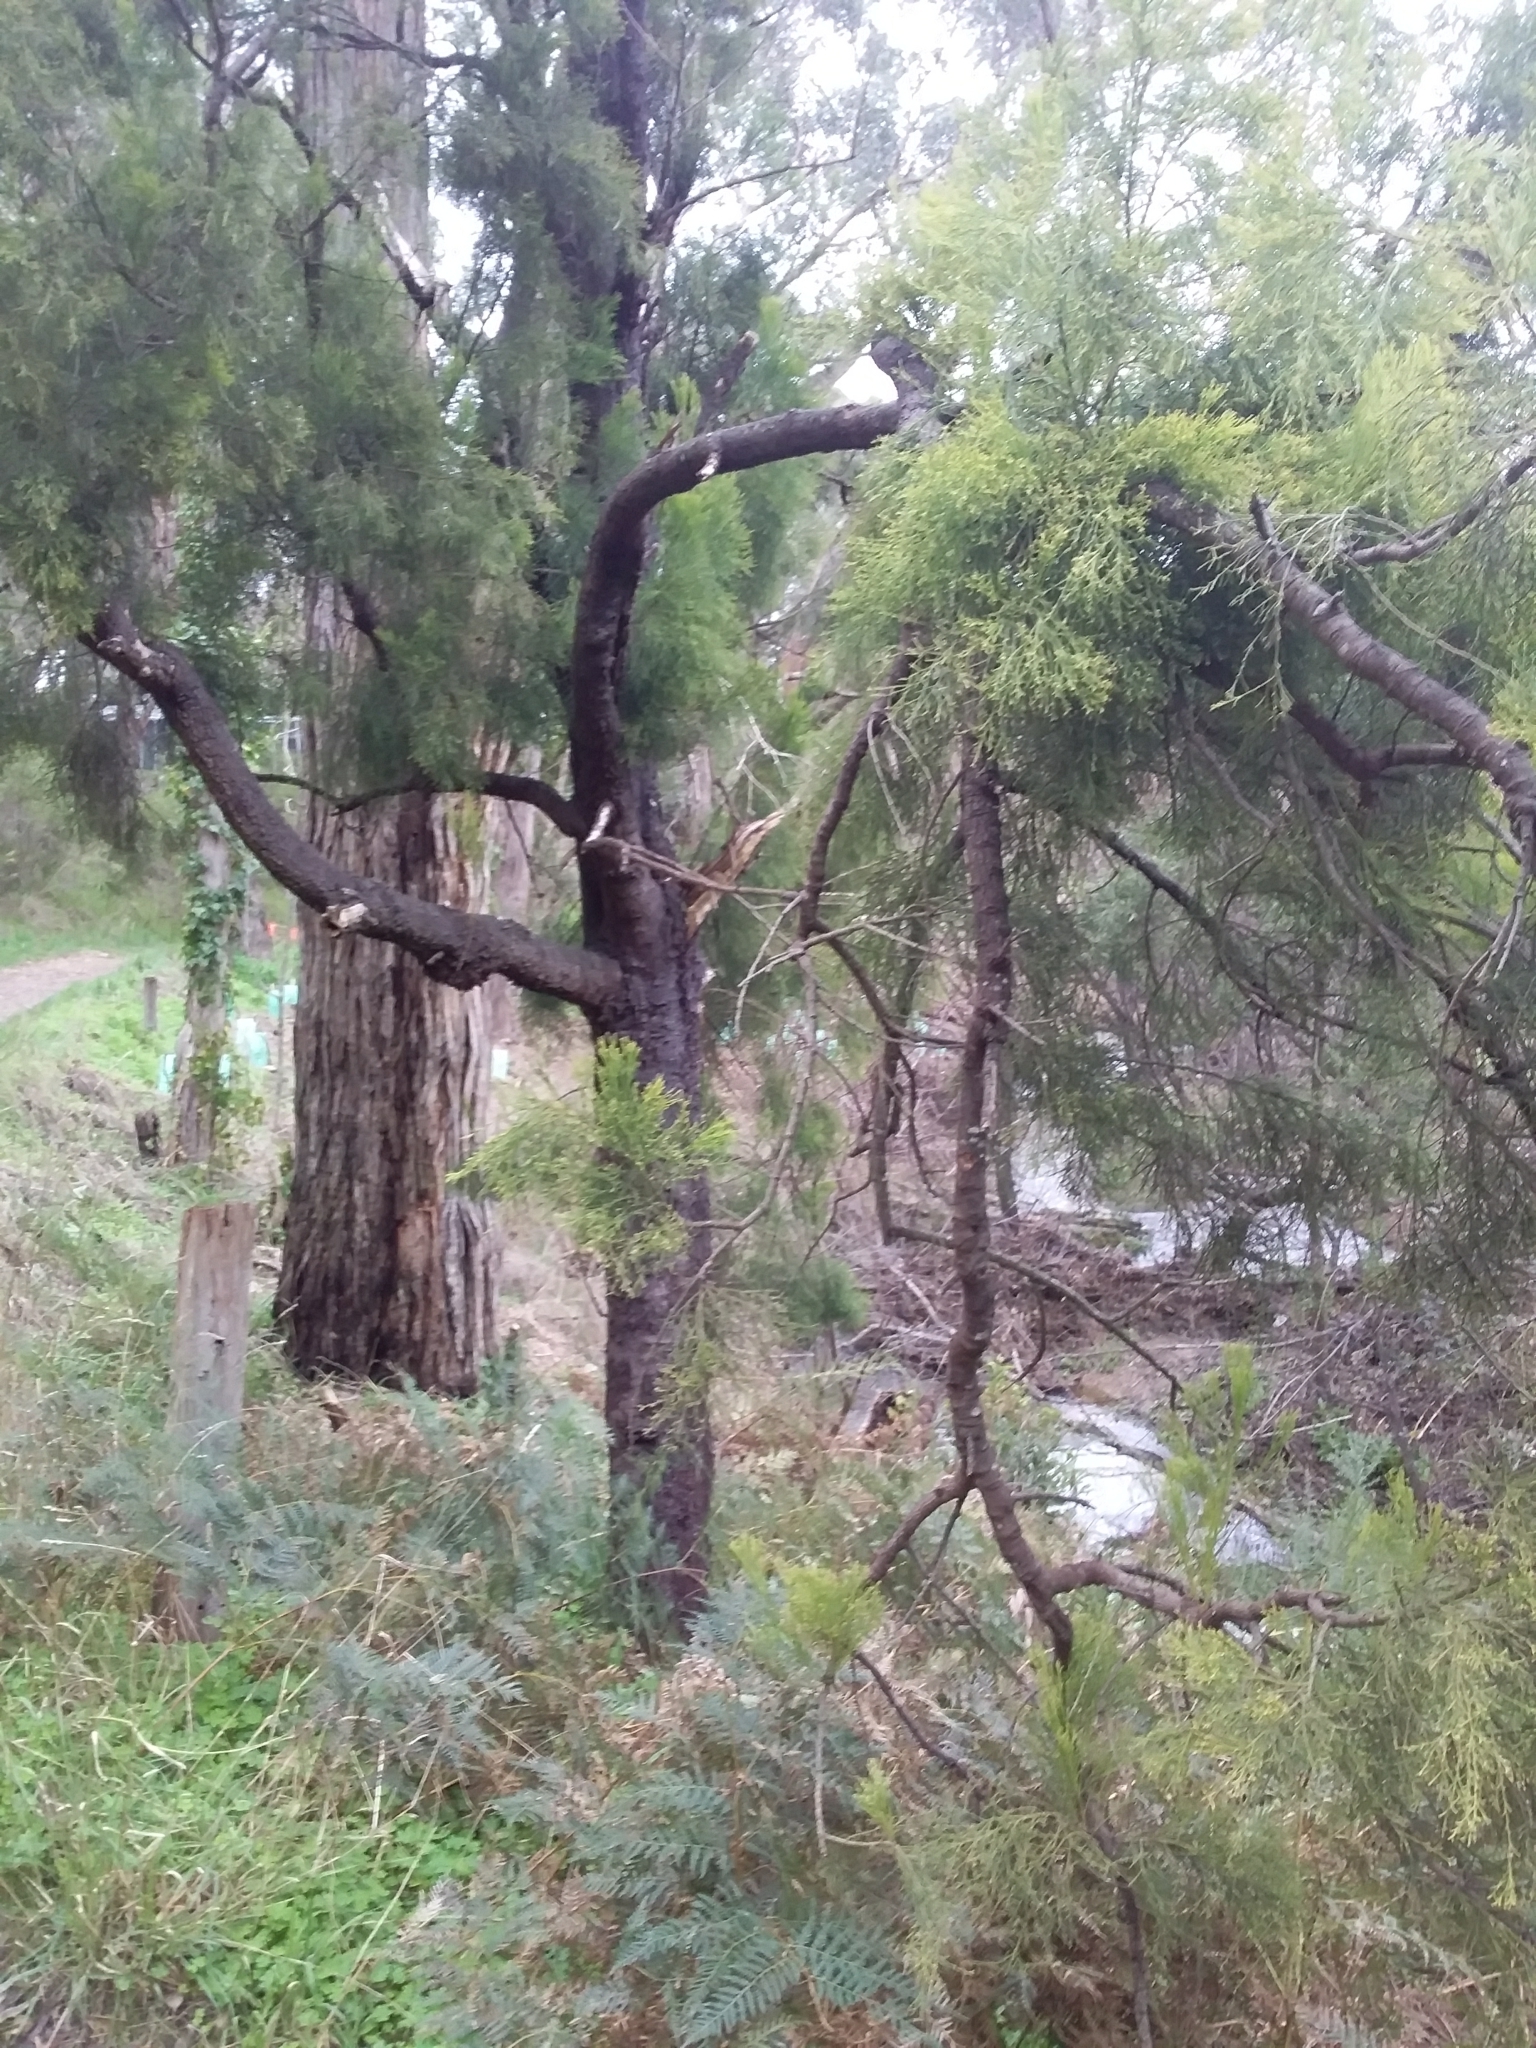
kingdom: Plantae
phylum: Tracheophyta
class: Magnoliopsida
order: Santalales
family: Santalaceae
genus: Exocarpos
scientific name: Exocarpos cupressiformis
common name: Cherry ballart
